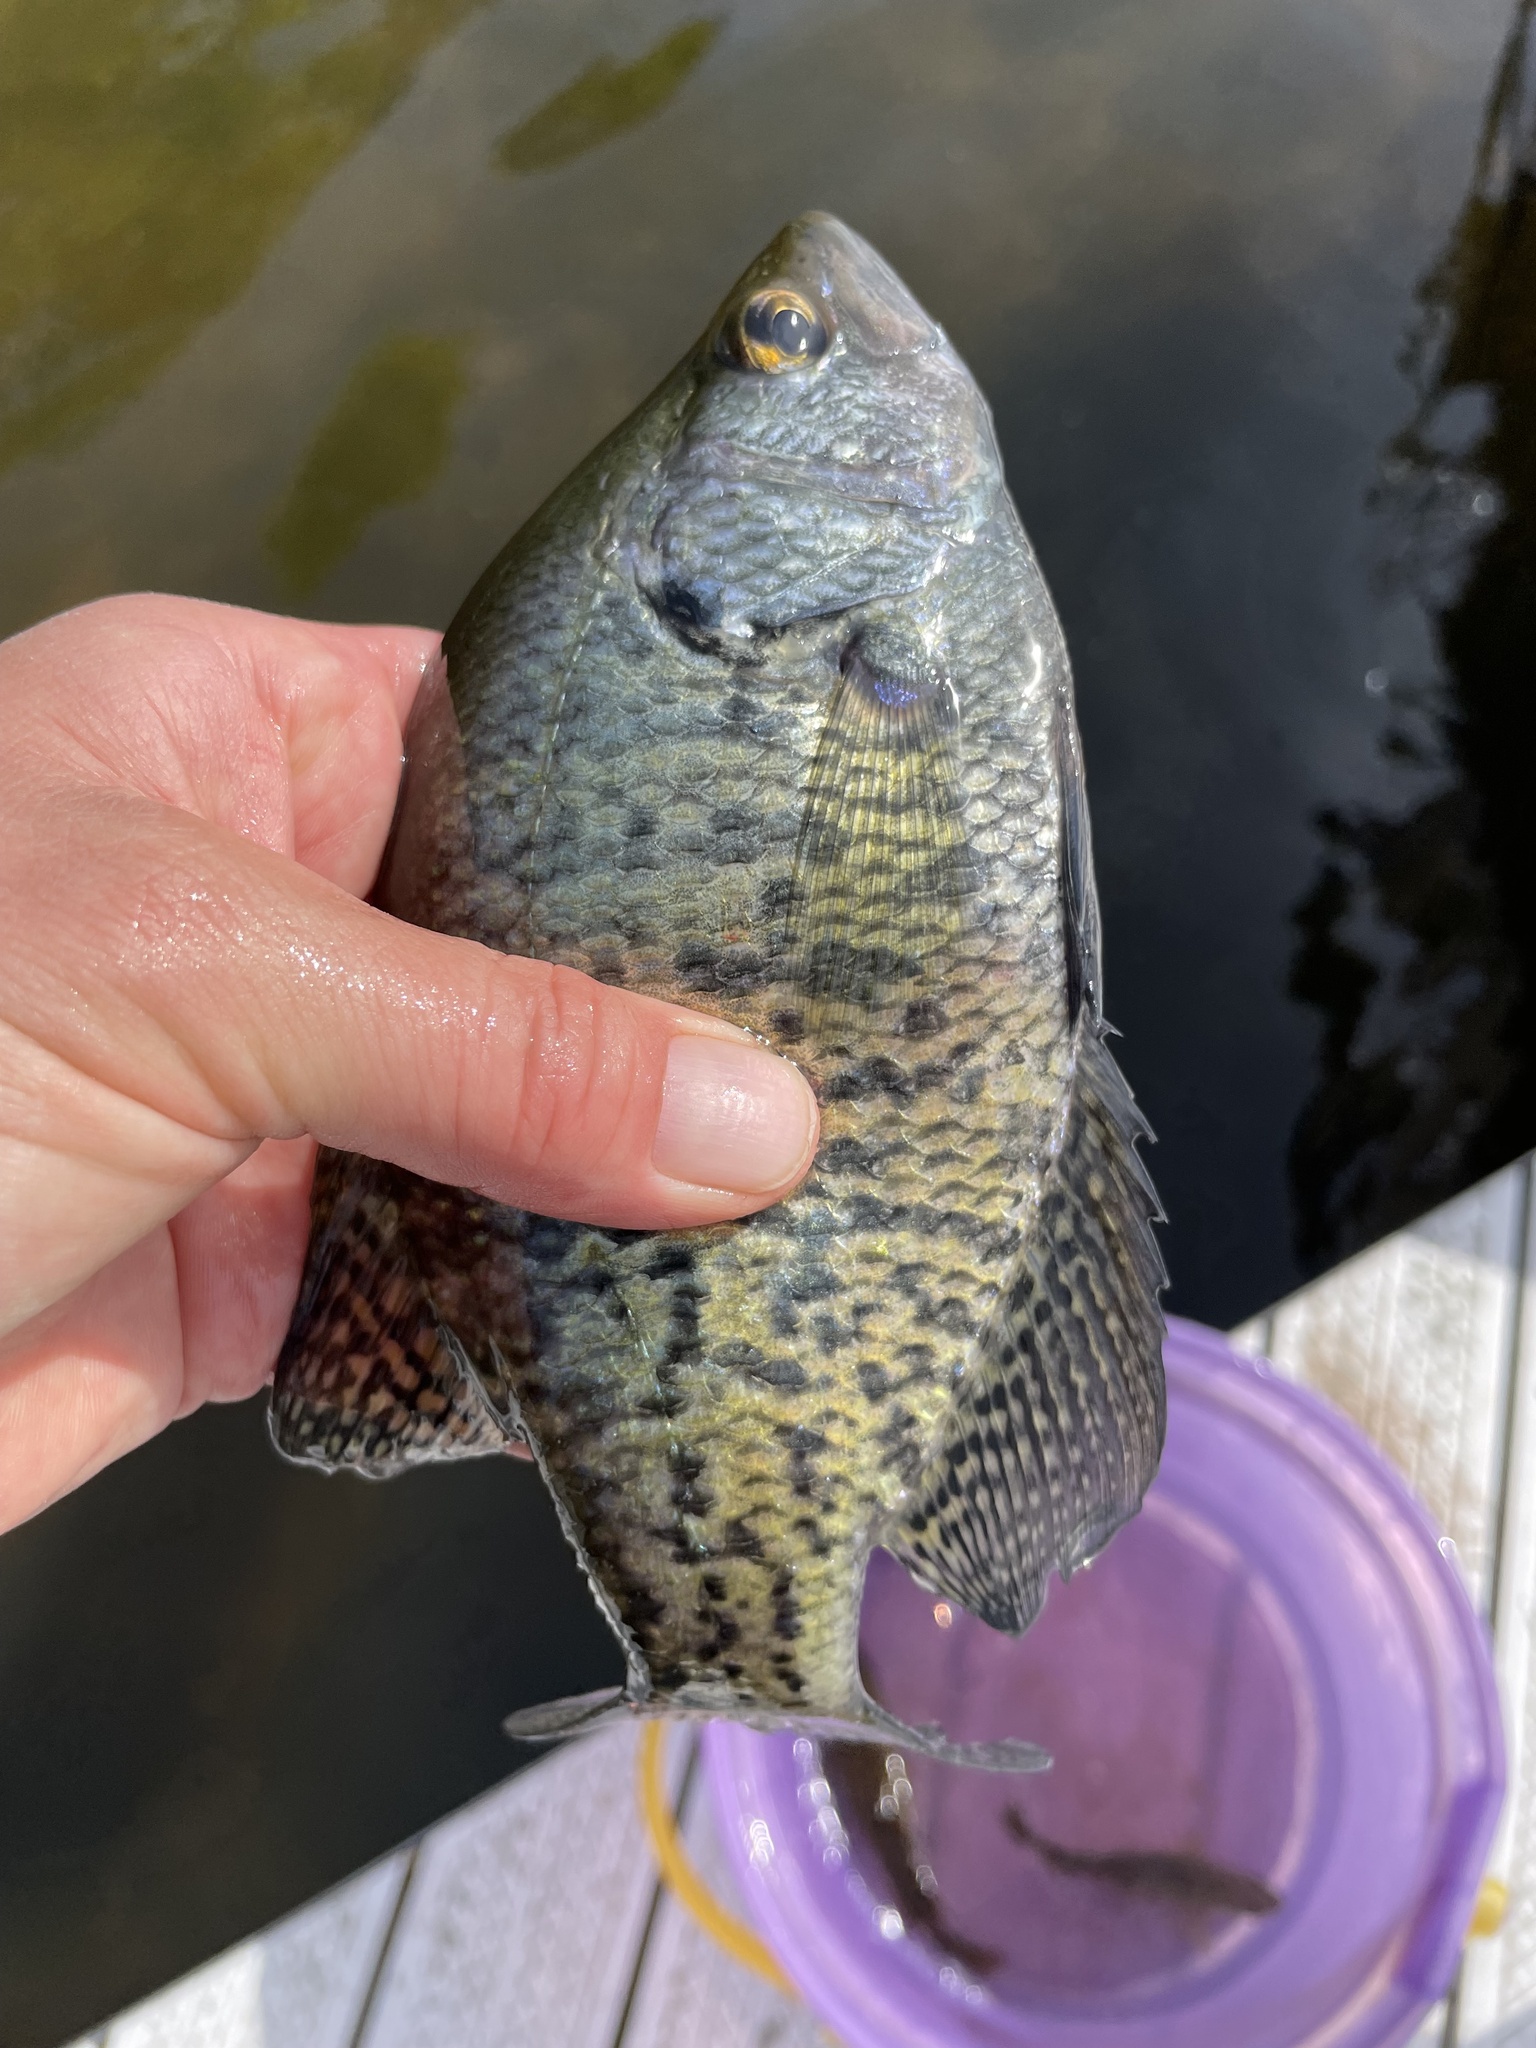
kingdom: Animalia
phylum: Chordata
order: Perciformes
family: Centrarchidae
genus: Pomoxis
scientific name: Pomoxis nigromaculatus
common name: Black crappie
